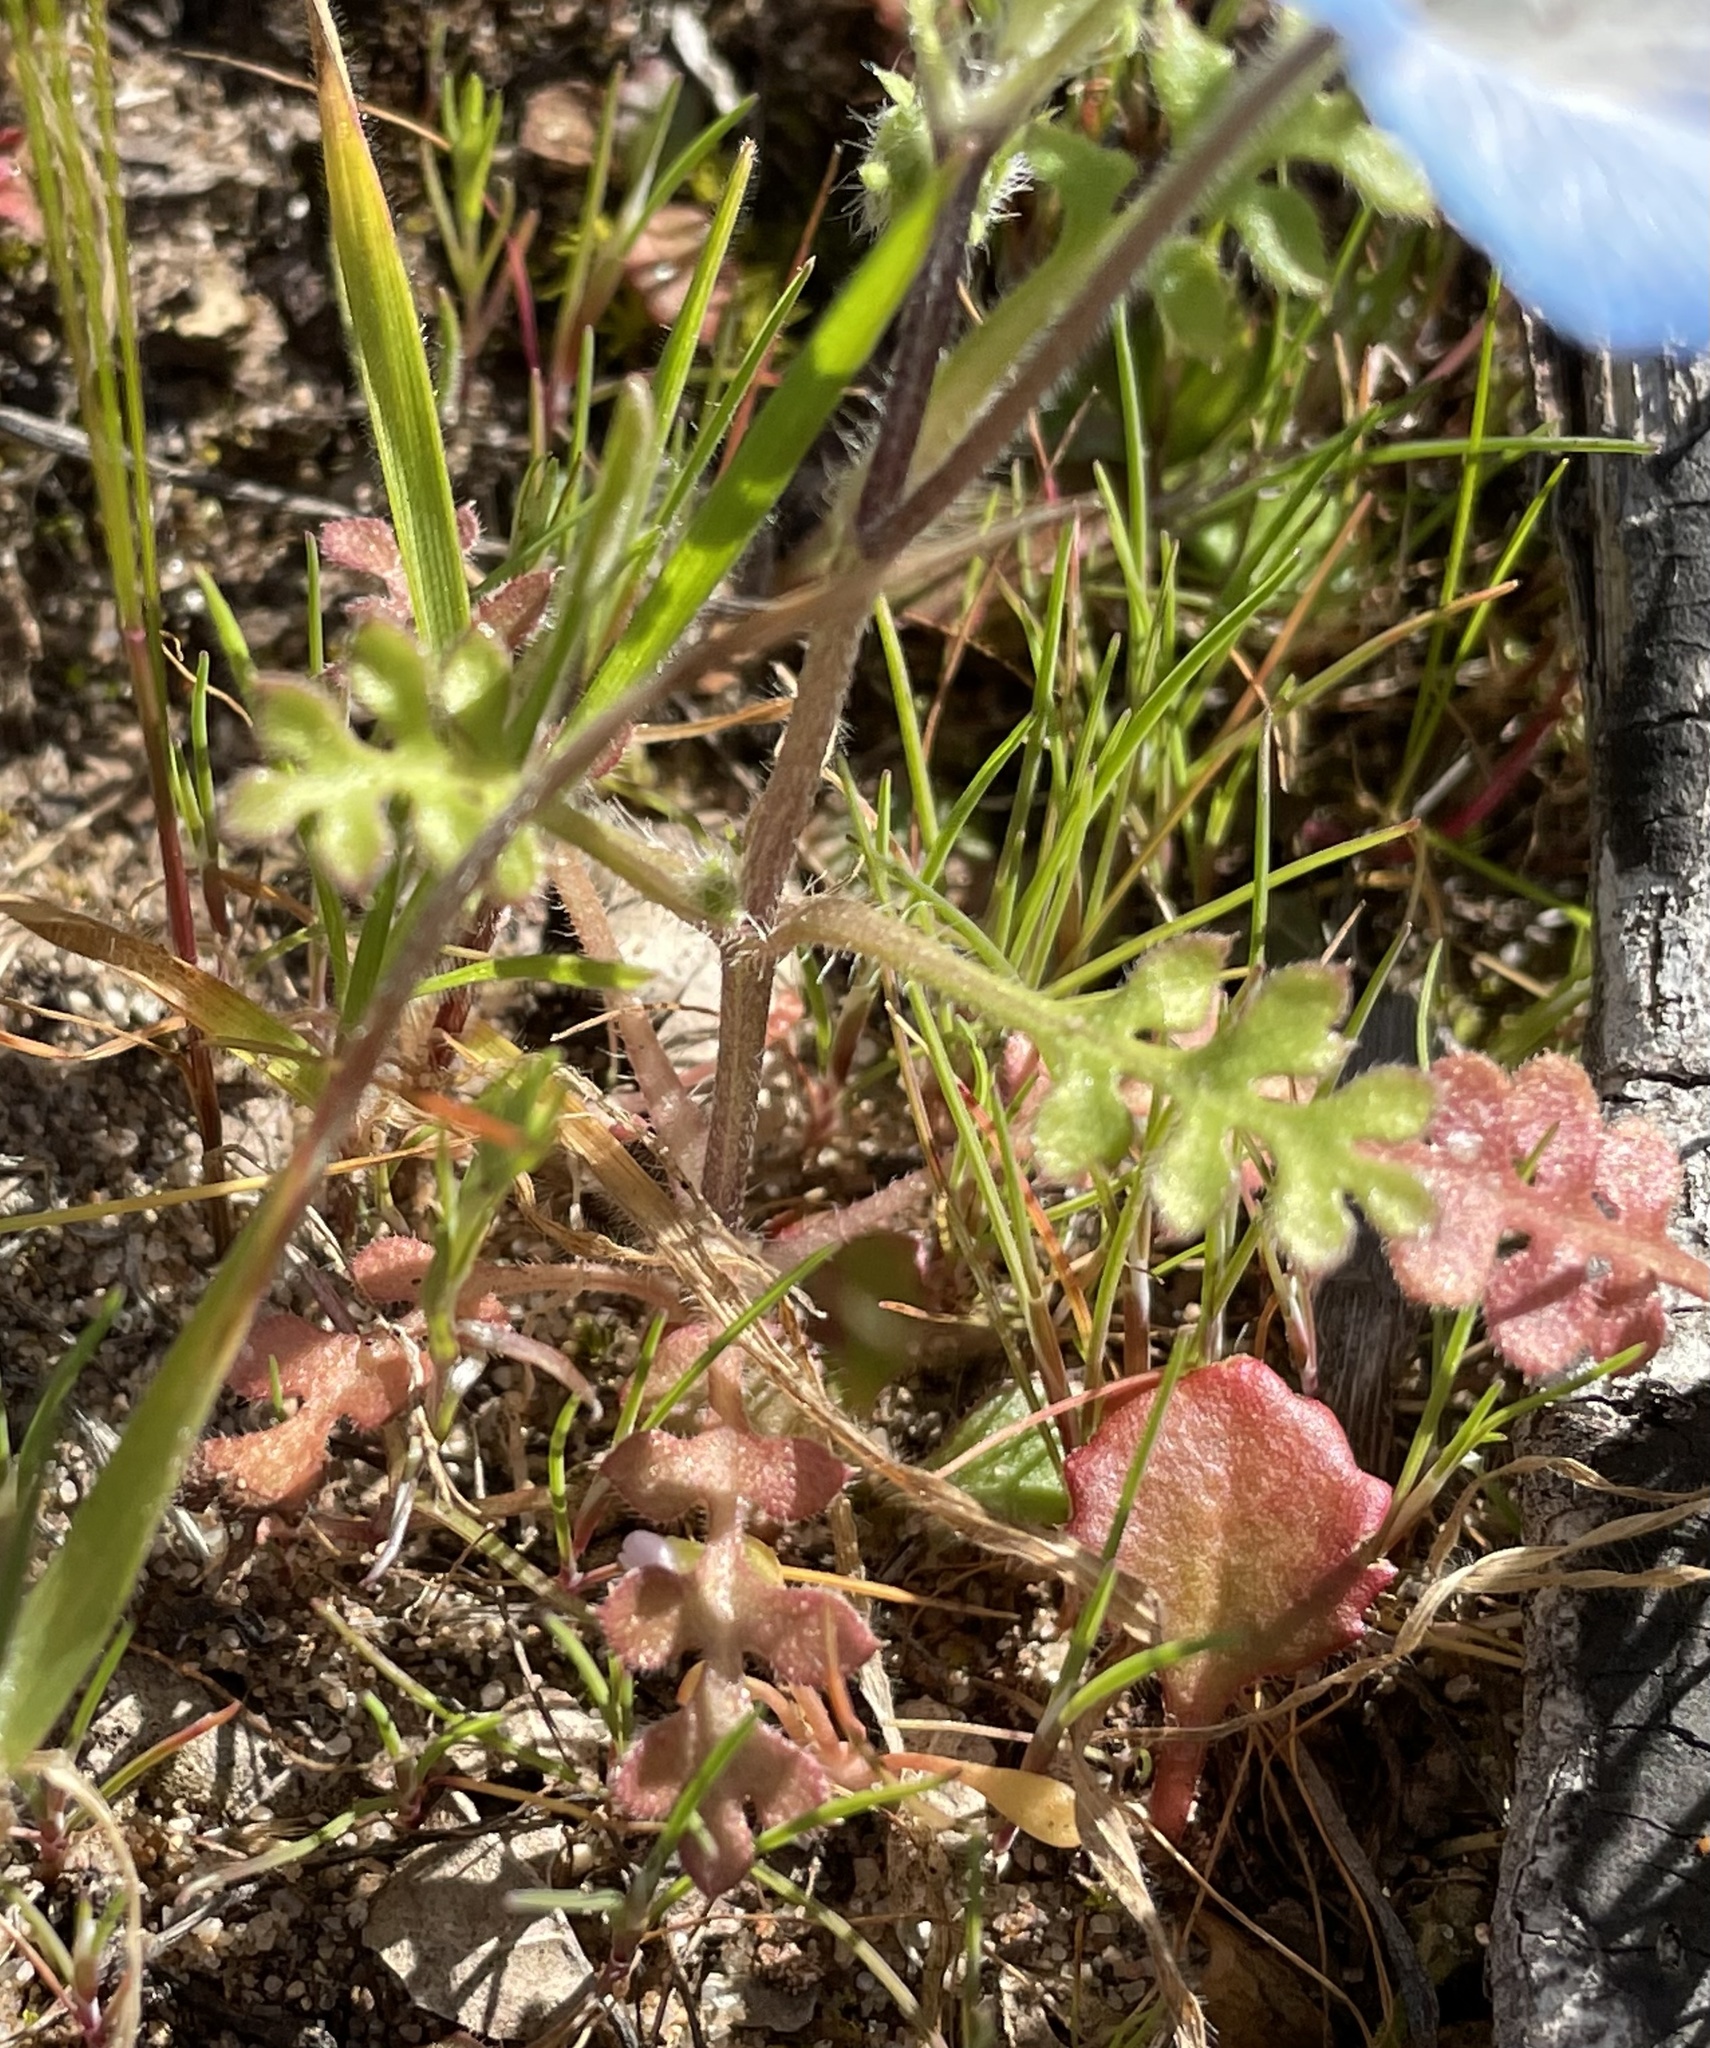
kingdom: Plantae
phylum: Tracheophyta
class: Magnoliopsida
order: Boraginales
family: Hydrophyllaceae
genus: Nemophila
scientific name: Nemophila menziesii
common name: Baby's-blue-eyes
